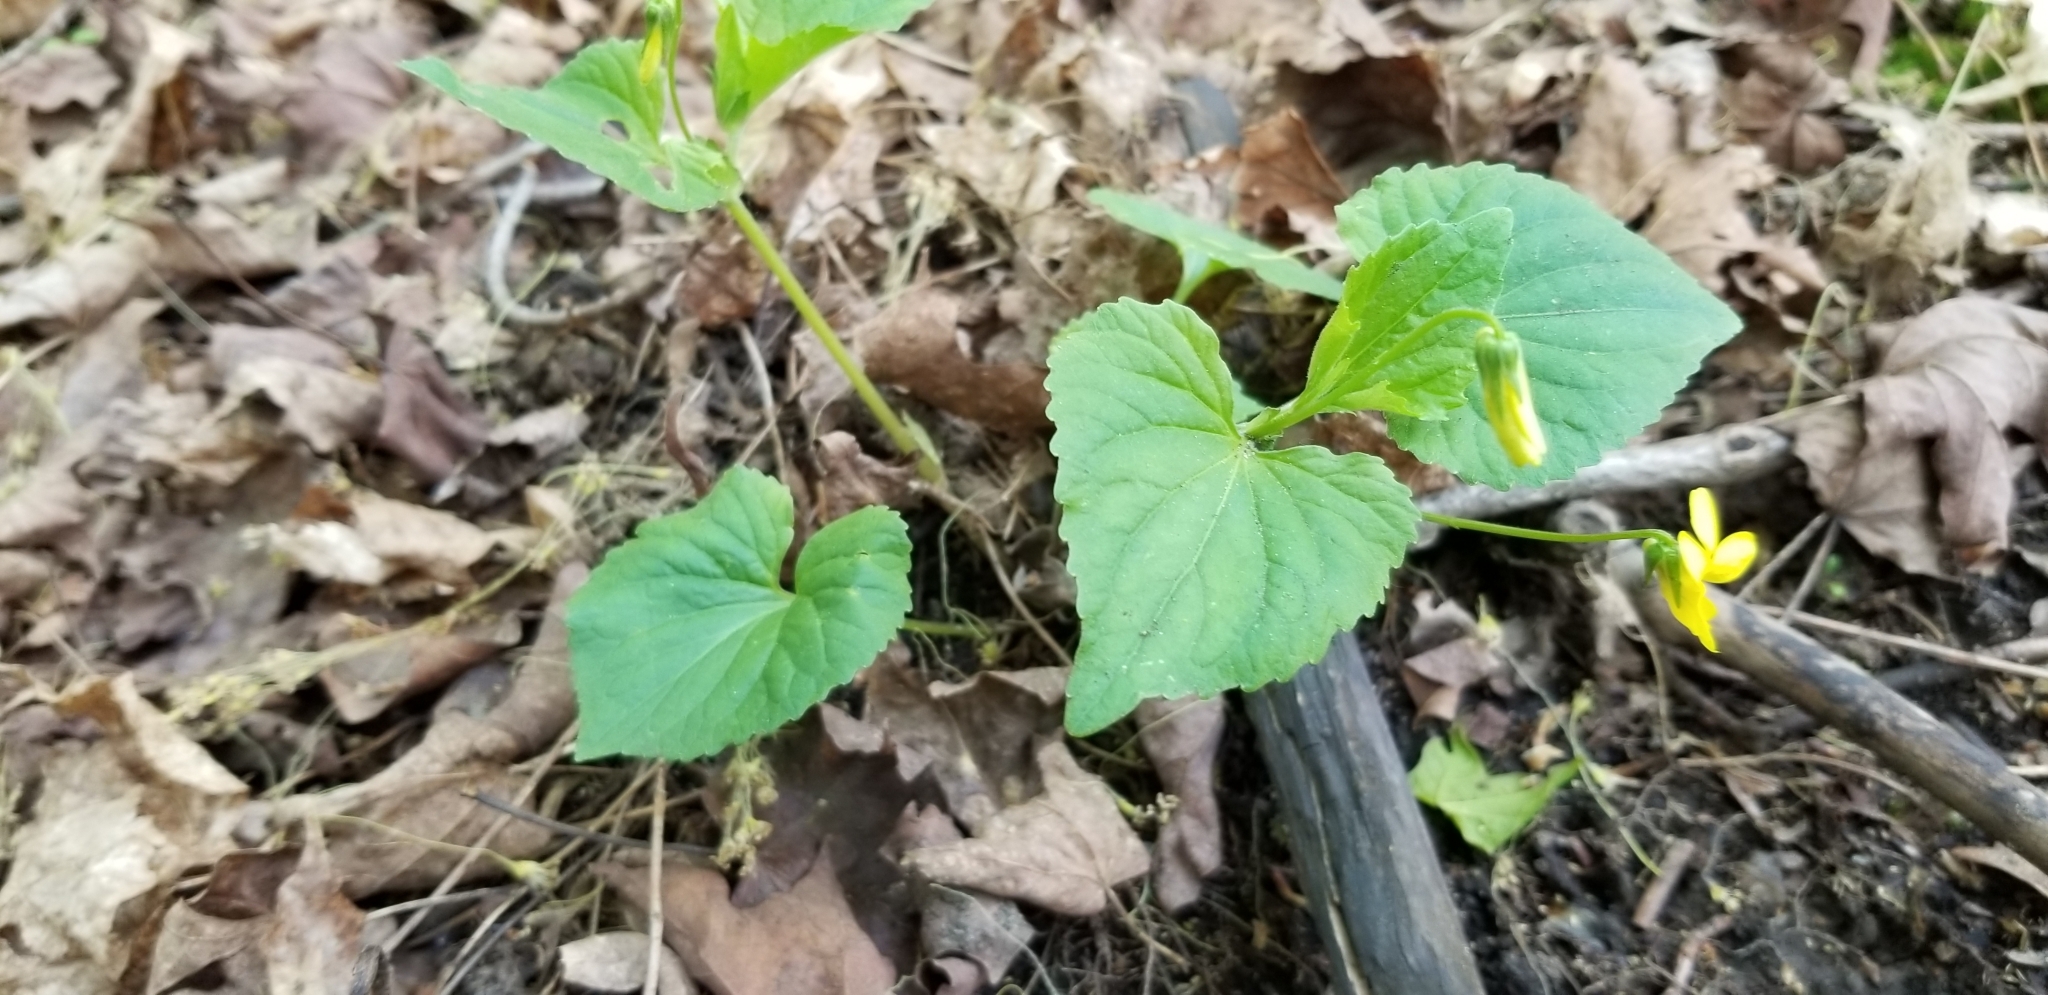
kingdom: Plantae
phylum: Tracheophyta
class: Magnoliopsida
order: Malpighiales
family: Violaceae
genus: Viola
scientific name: Viola eriocarpa
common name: Smooth yellow violet
